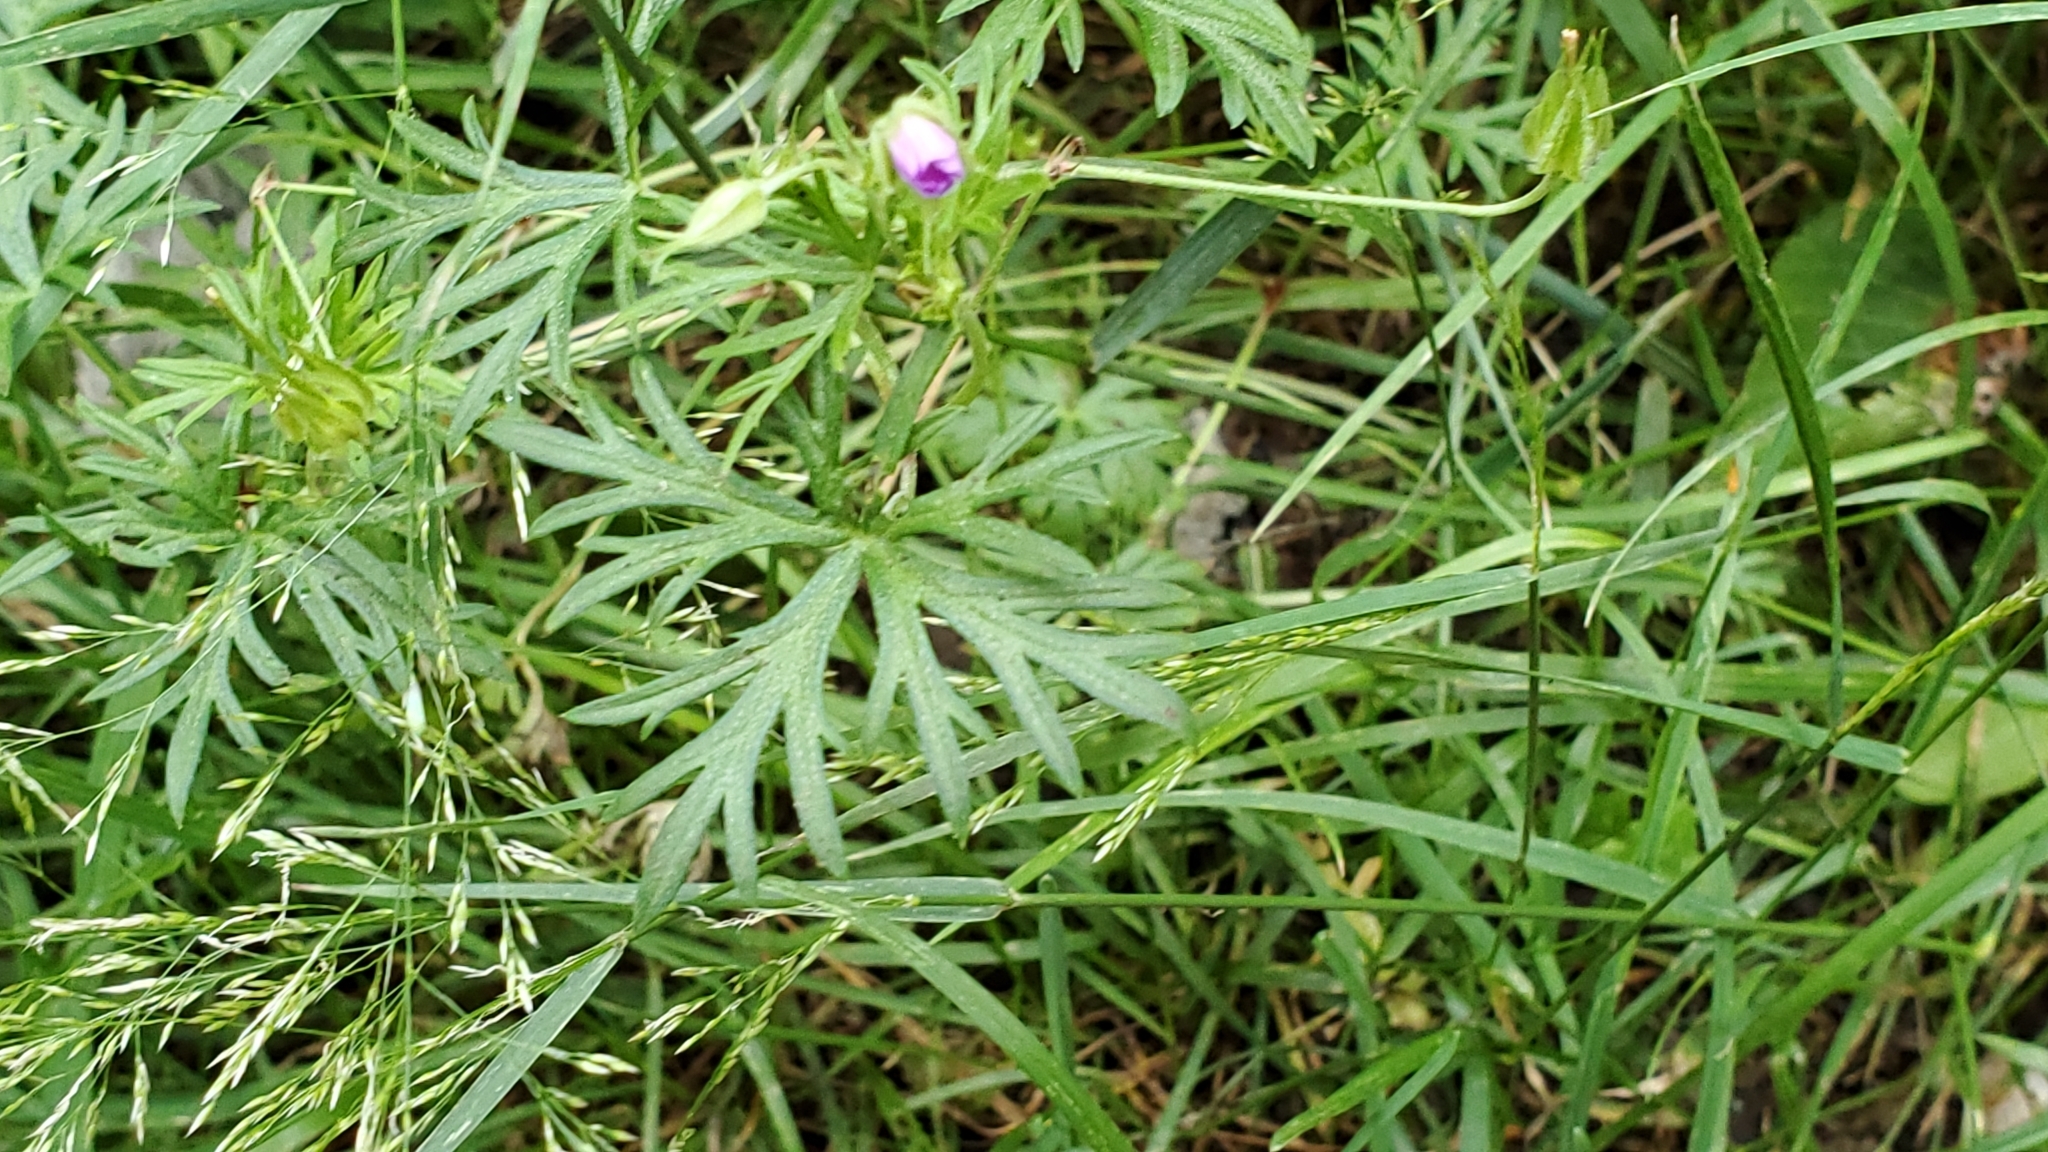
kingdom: Plantae
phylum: Tracheophyta
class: Magnoliopsida
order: Geraniales
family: Geraniaceae
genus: Geranium
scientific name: Geranium columbinum
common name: Long-stalked crane's-bill
